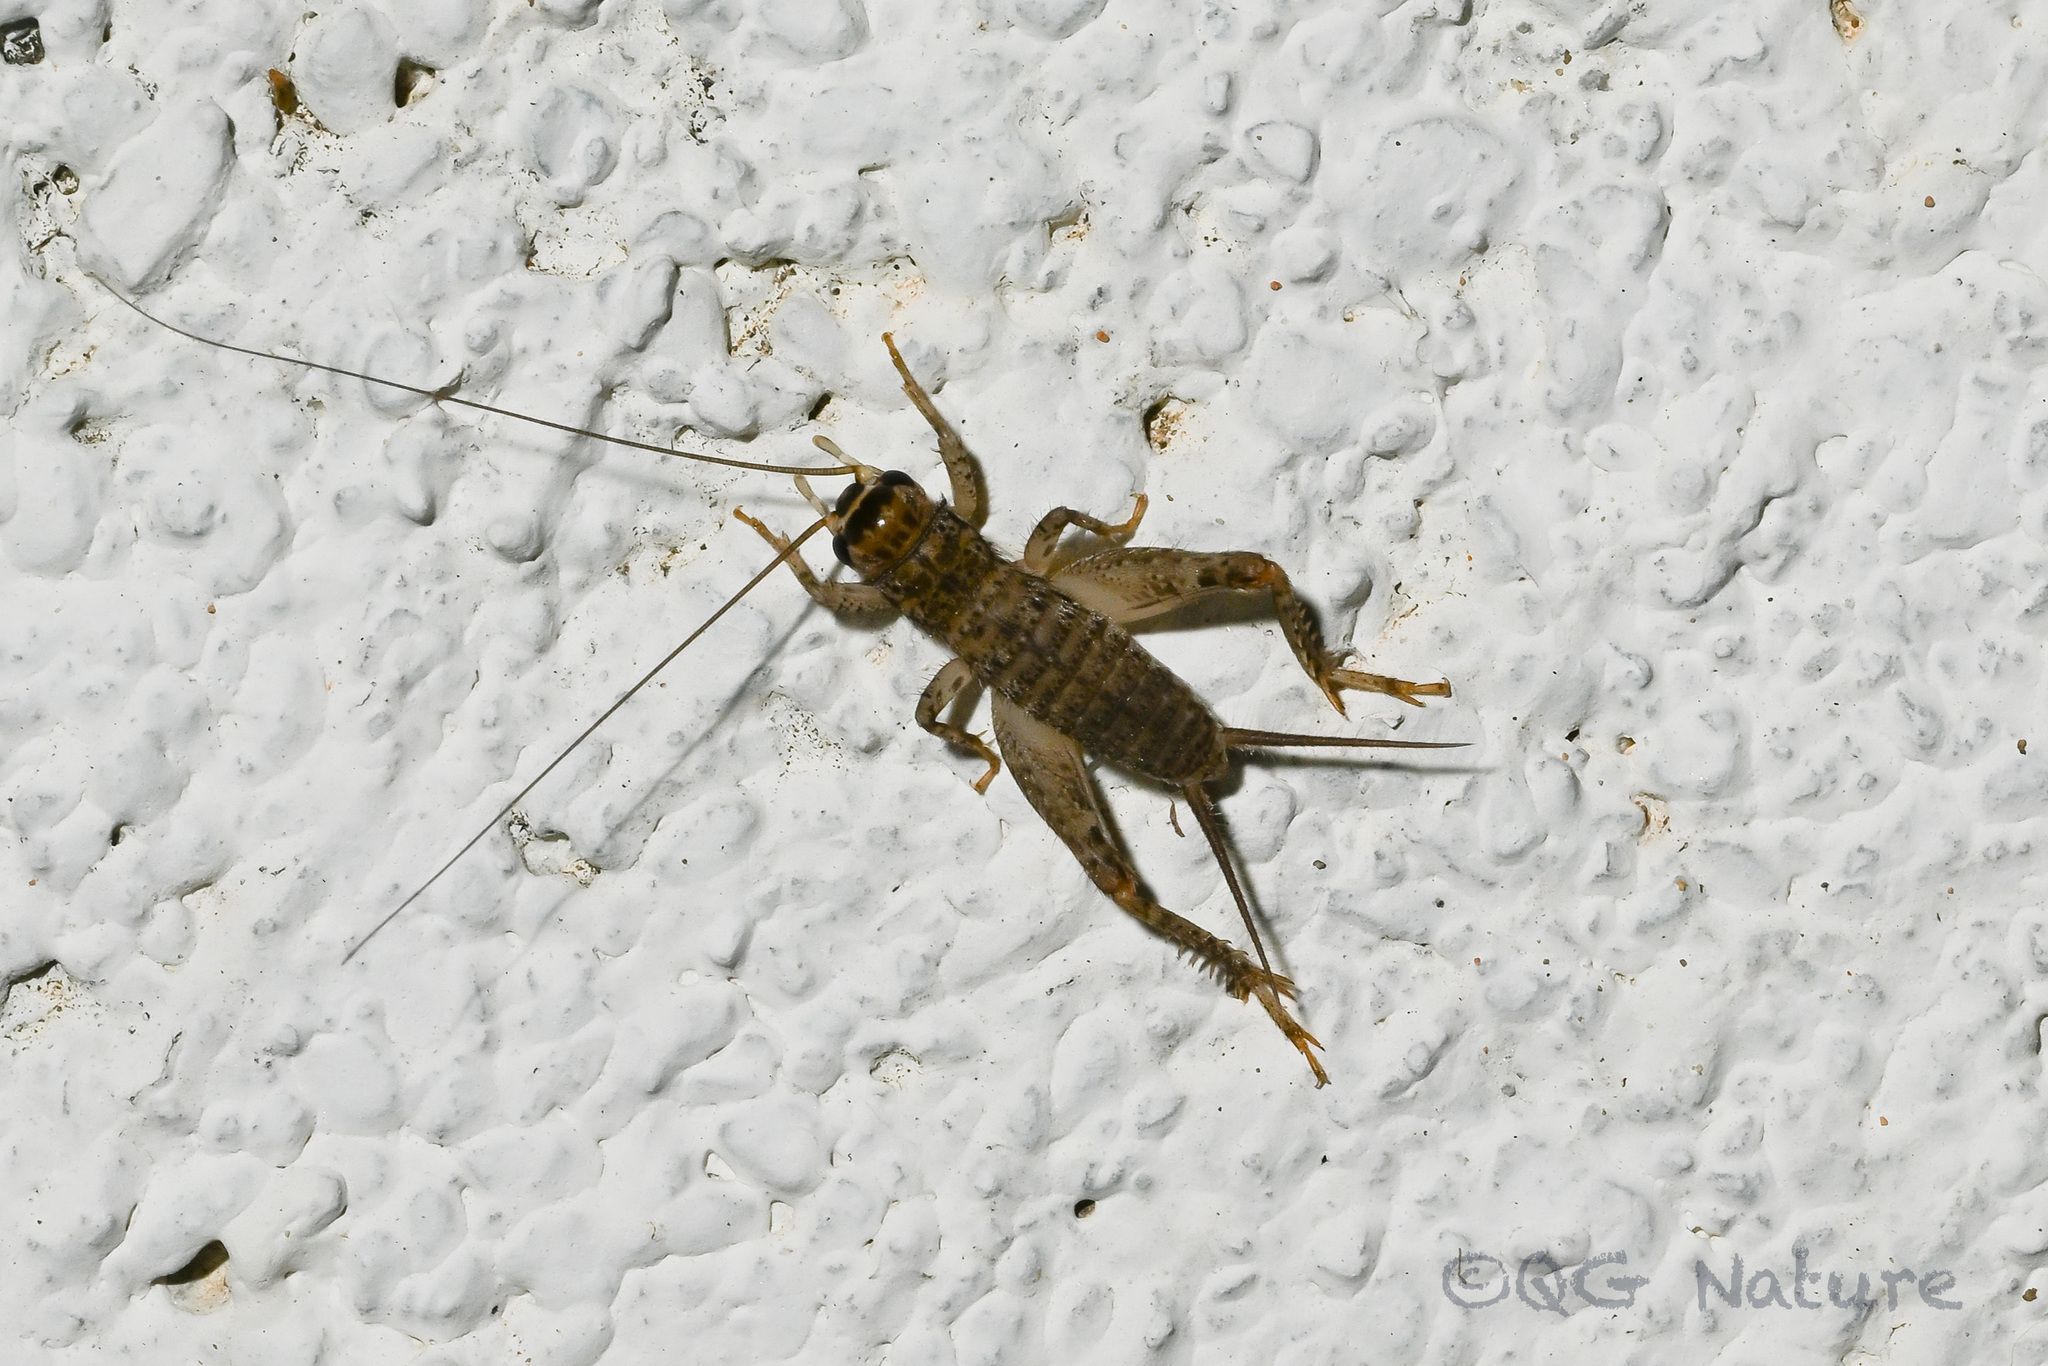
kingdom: Animalia
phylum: Arthropoda
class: Insecta
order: Orthoptera
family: Gryllidae
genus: Velarifictorus
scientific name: Velarifictorus micado
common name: Japanese burrowing cricket
